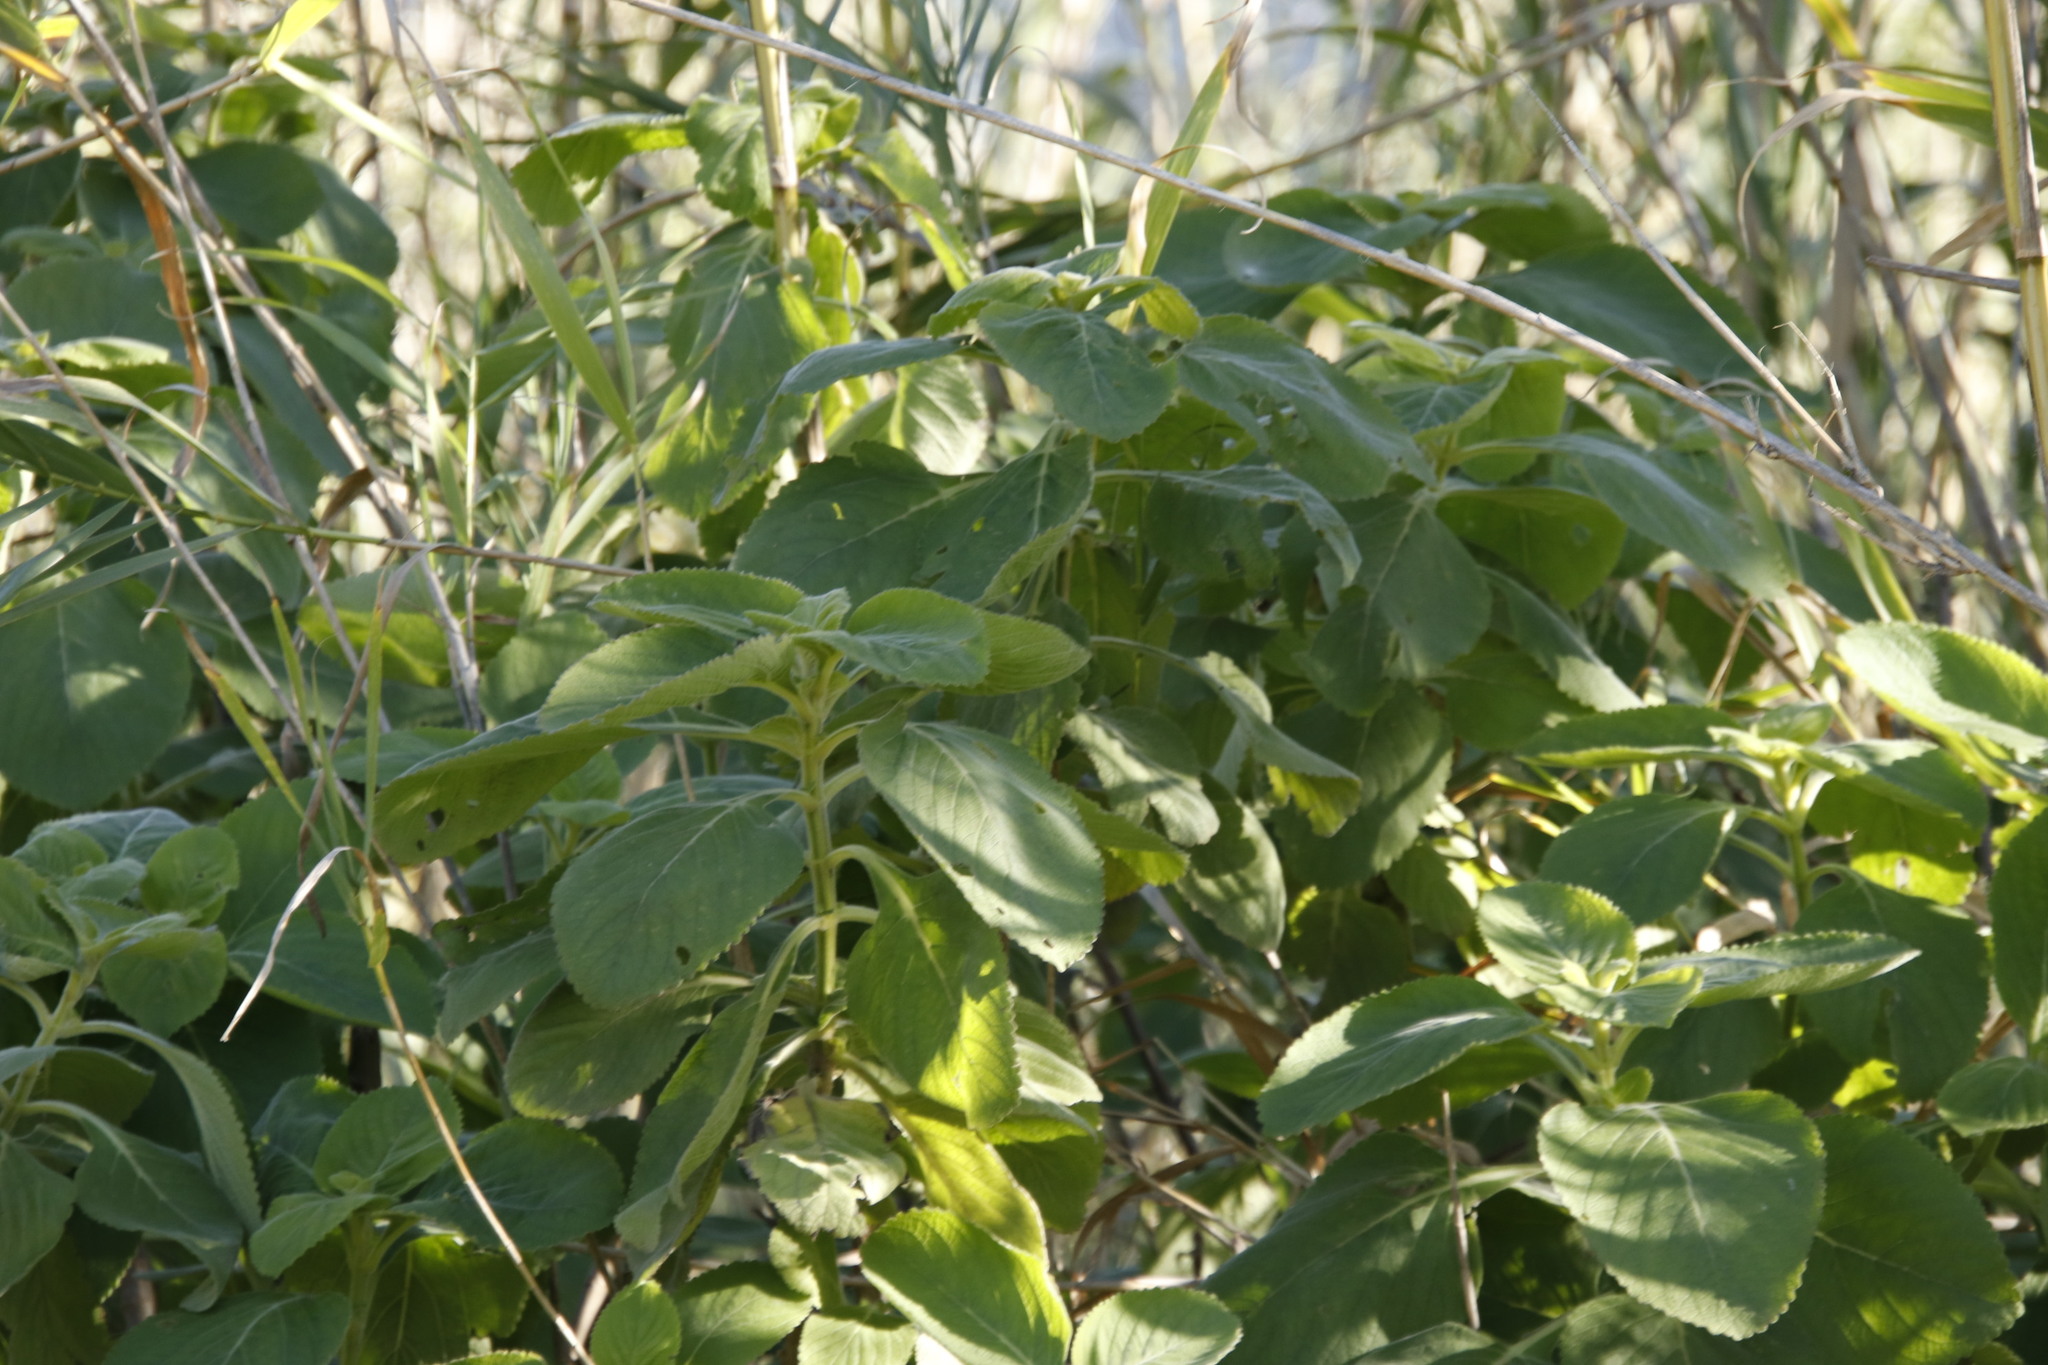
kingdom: Plantae
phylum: Tracheophyta
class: Magnoliopsida
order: Lamiales
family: Lamiaceae
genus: Coleus
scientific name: Coleus barbatus
